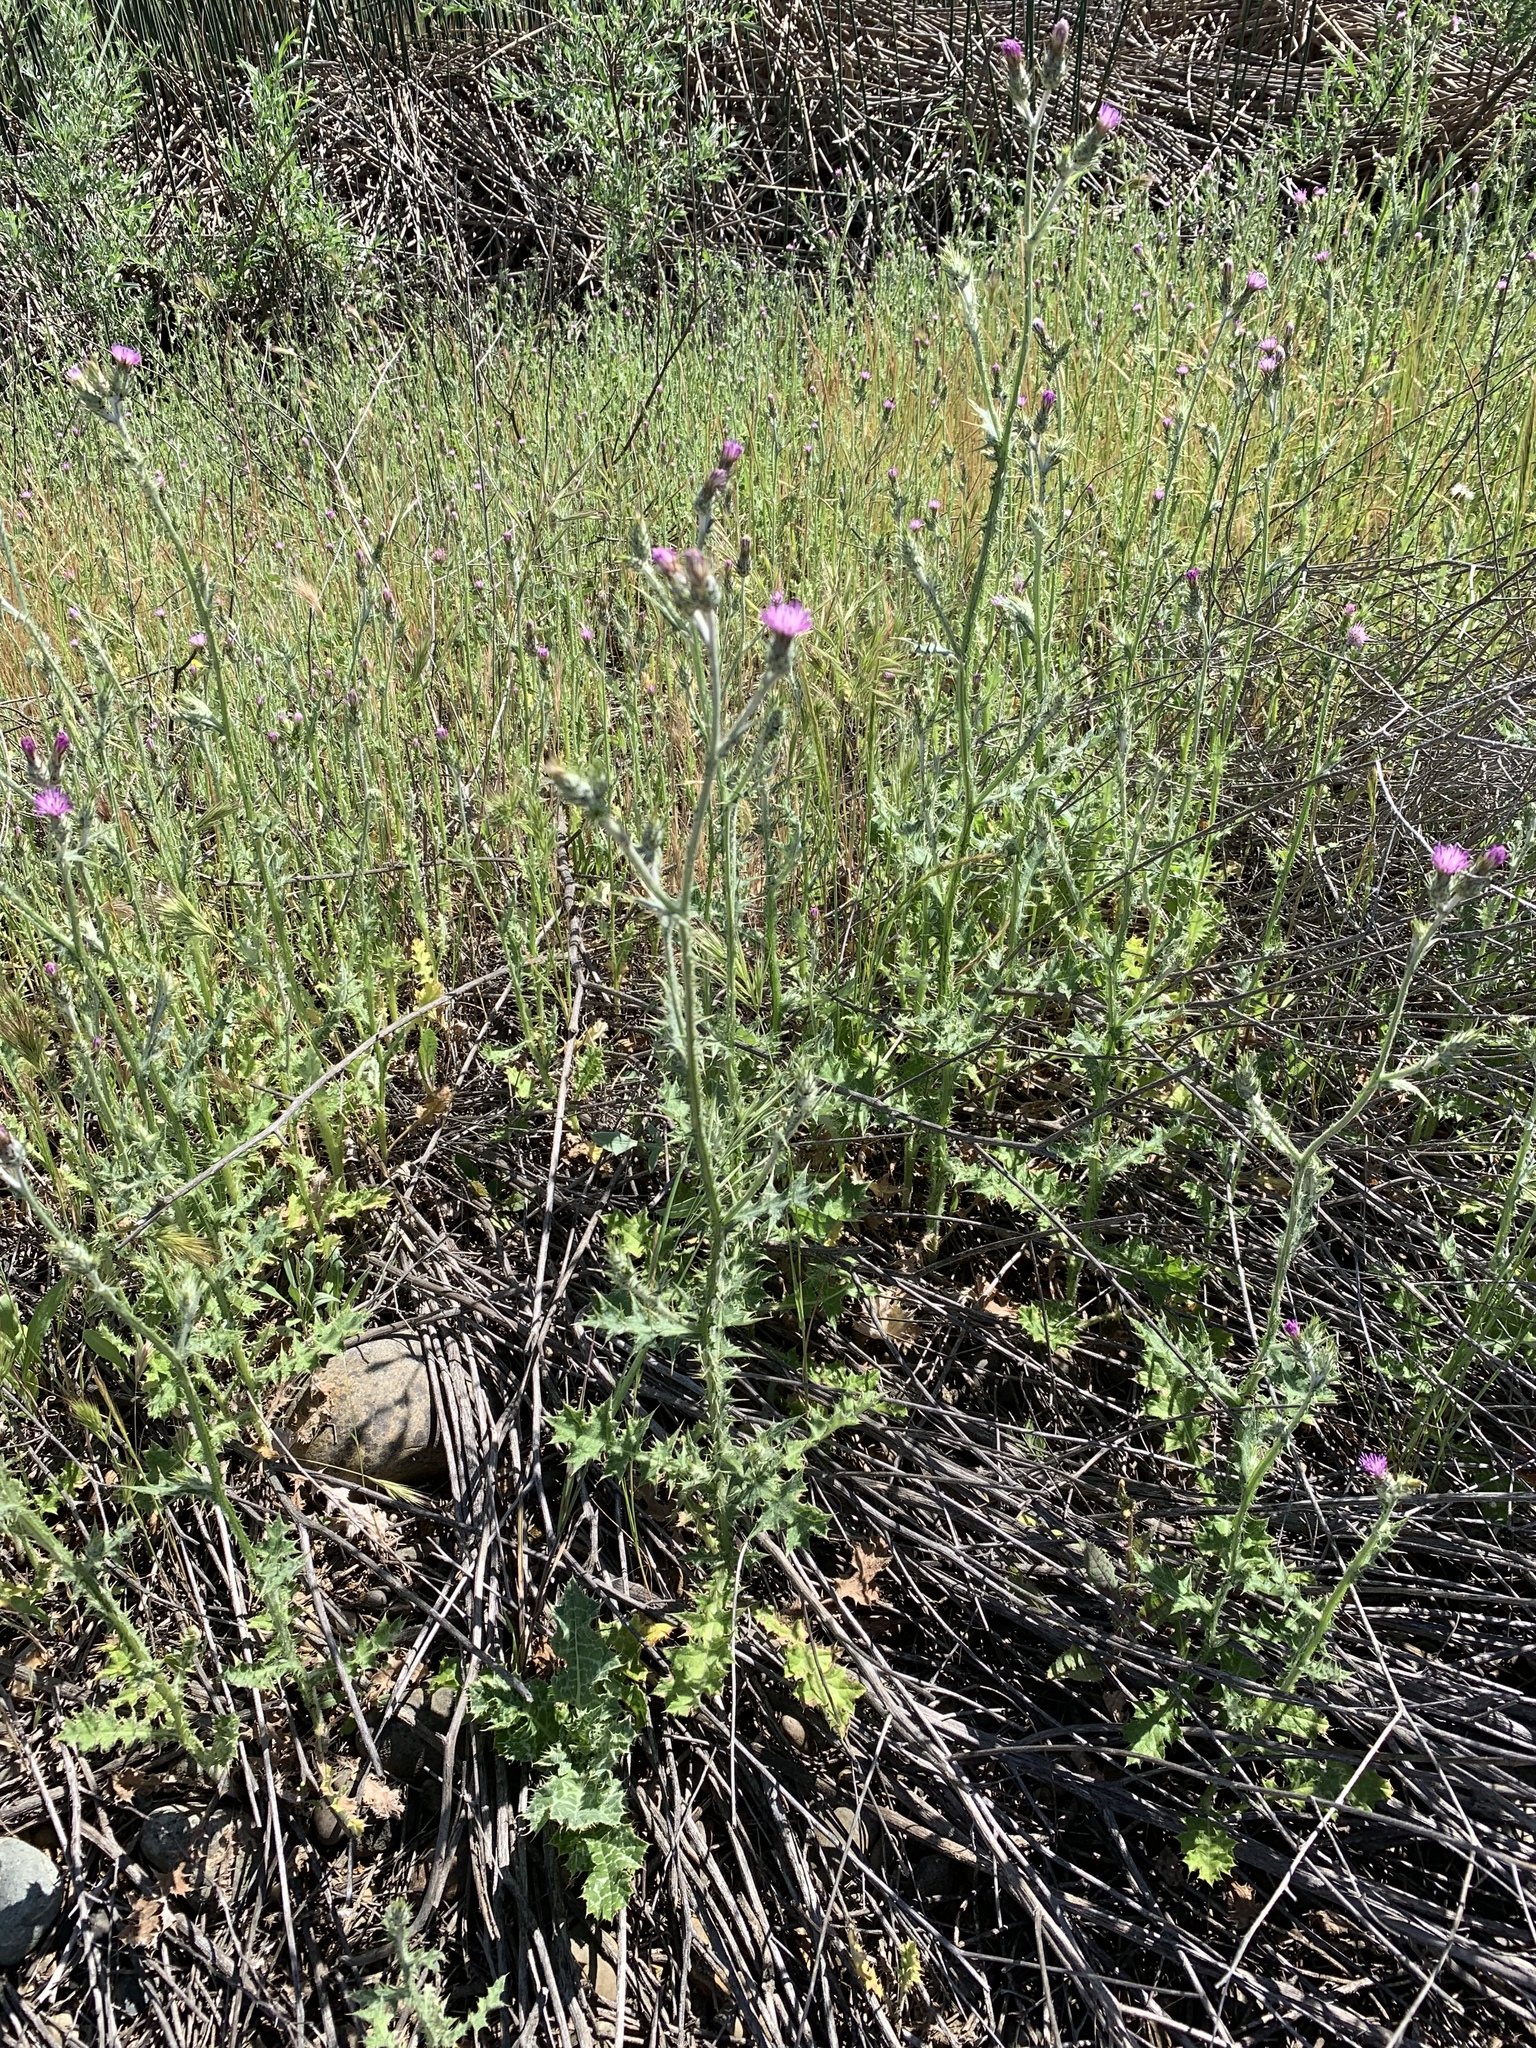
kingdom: Plantae
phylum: Tracheophyta
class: Magnoliopsida
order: Asterales
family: Asteraceae
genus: Carduus
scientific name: Carduus pycnocephalus
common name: Plymouth thistle
